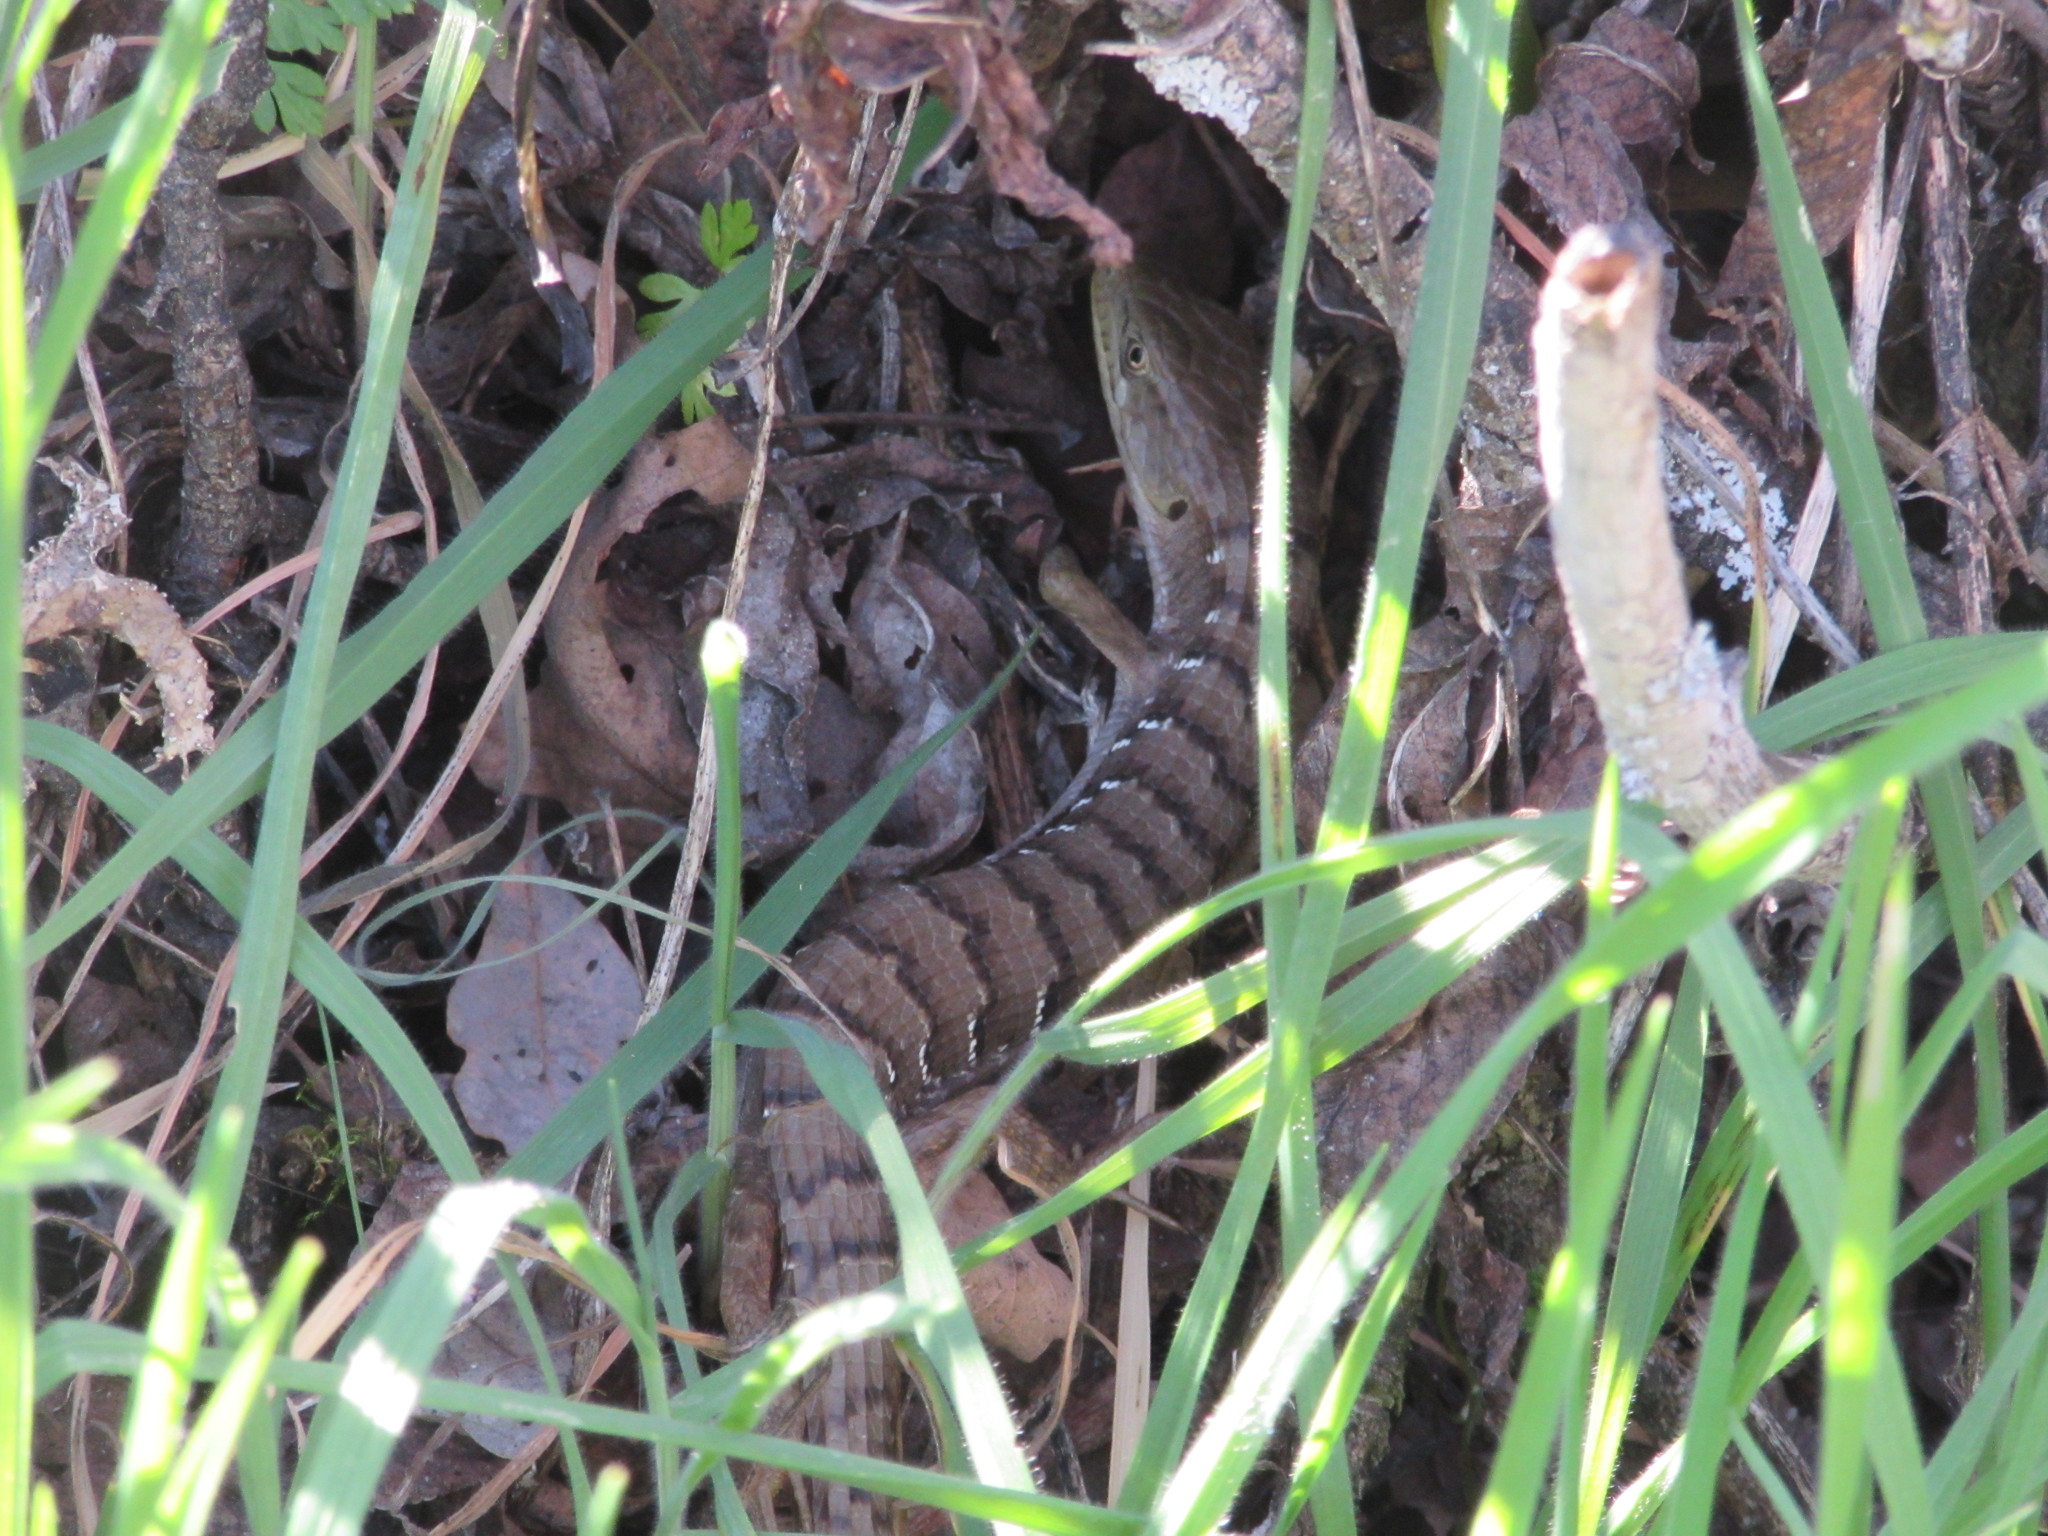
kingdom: Animalia
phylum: Chordata
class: Squamata
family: Anguidae
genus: Elgaria
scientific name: Elgaria multicarinata
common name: Southern alligator lizard
